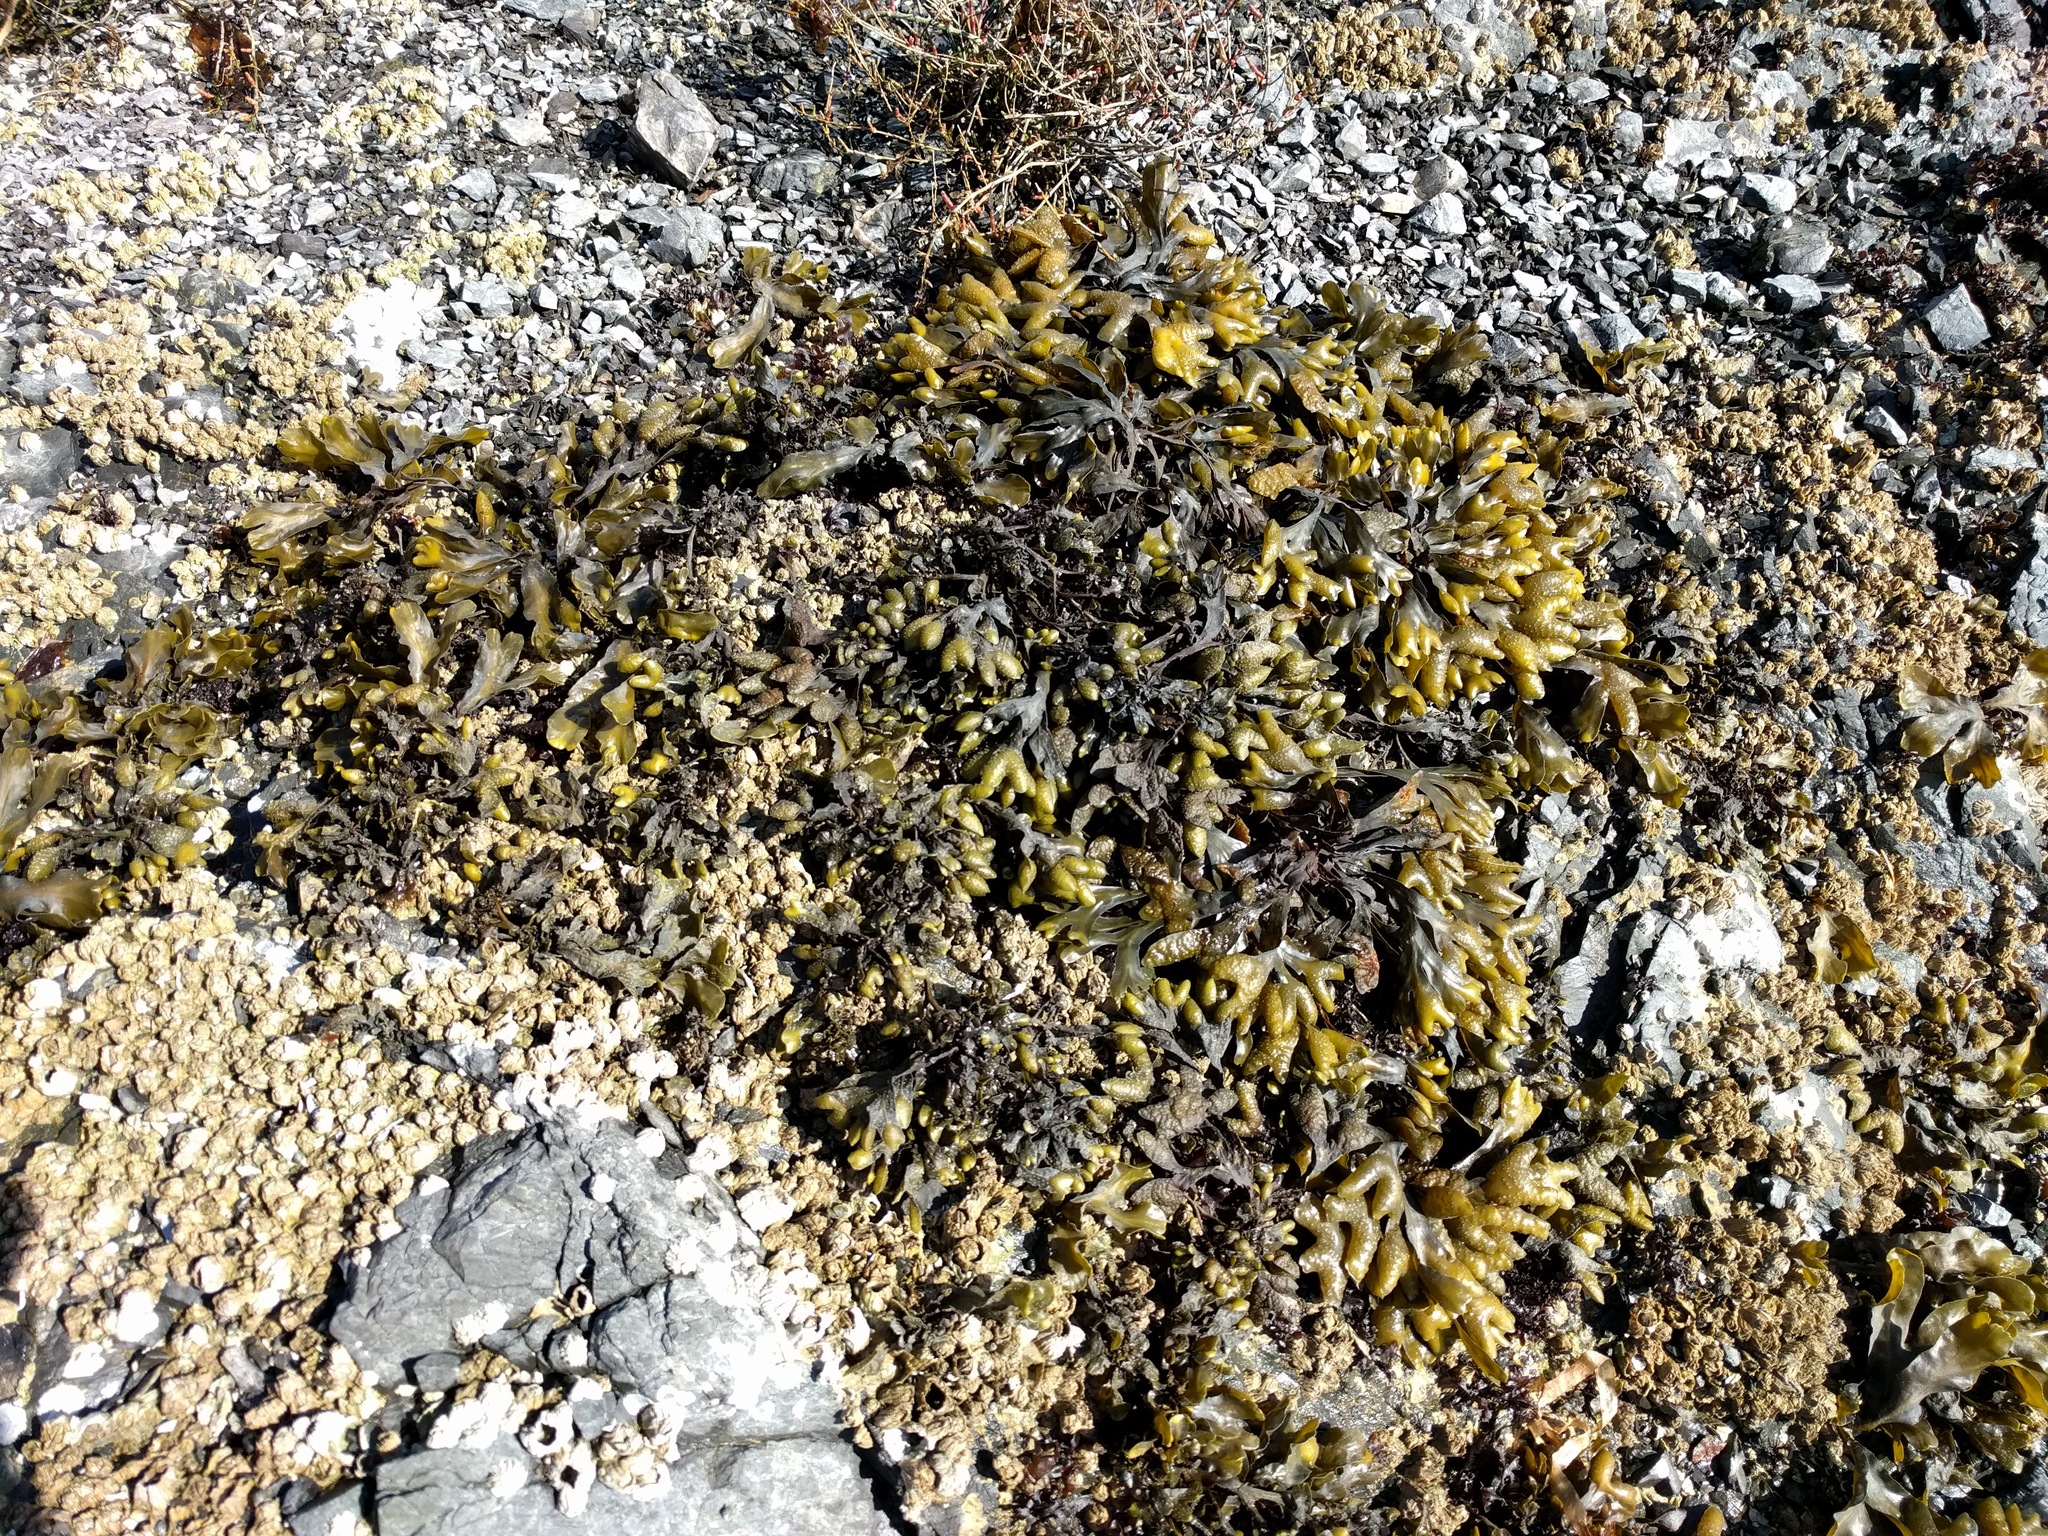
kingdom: Chromista
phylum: Ochrophyta
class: Phaeophyceae
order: Fucales
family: Fucaceae
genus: Fucus
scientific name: Fucus distichus
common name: Rockweed
